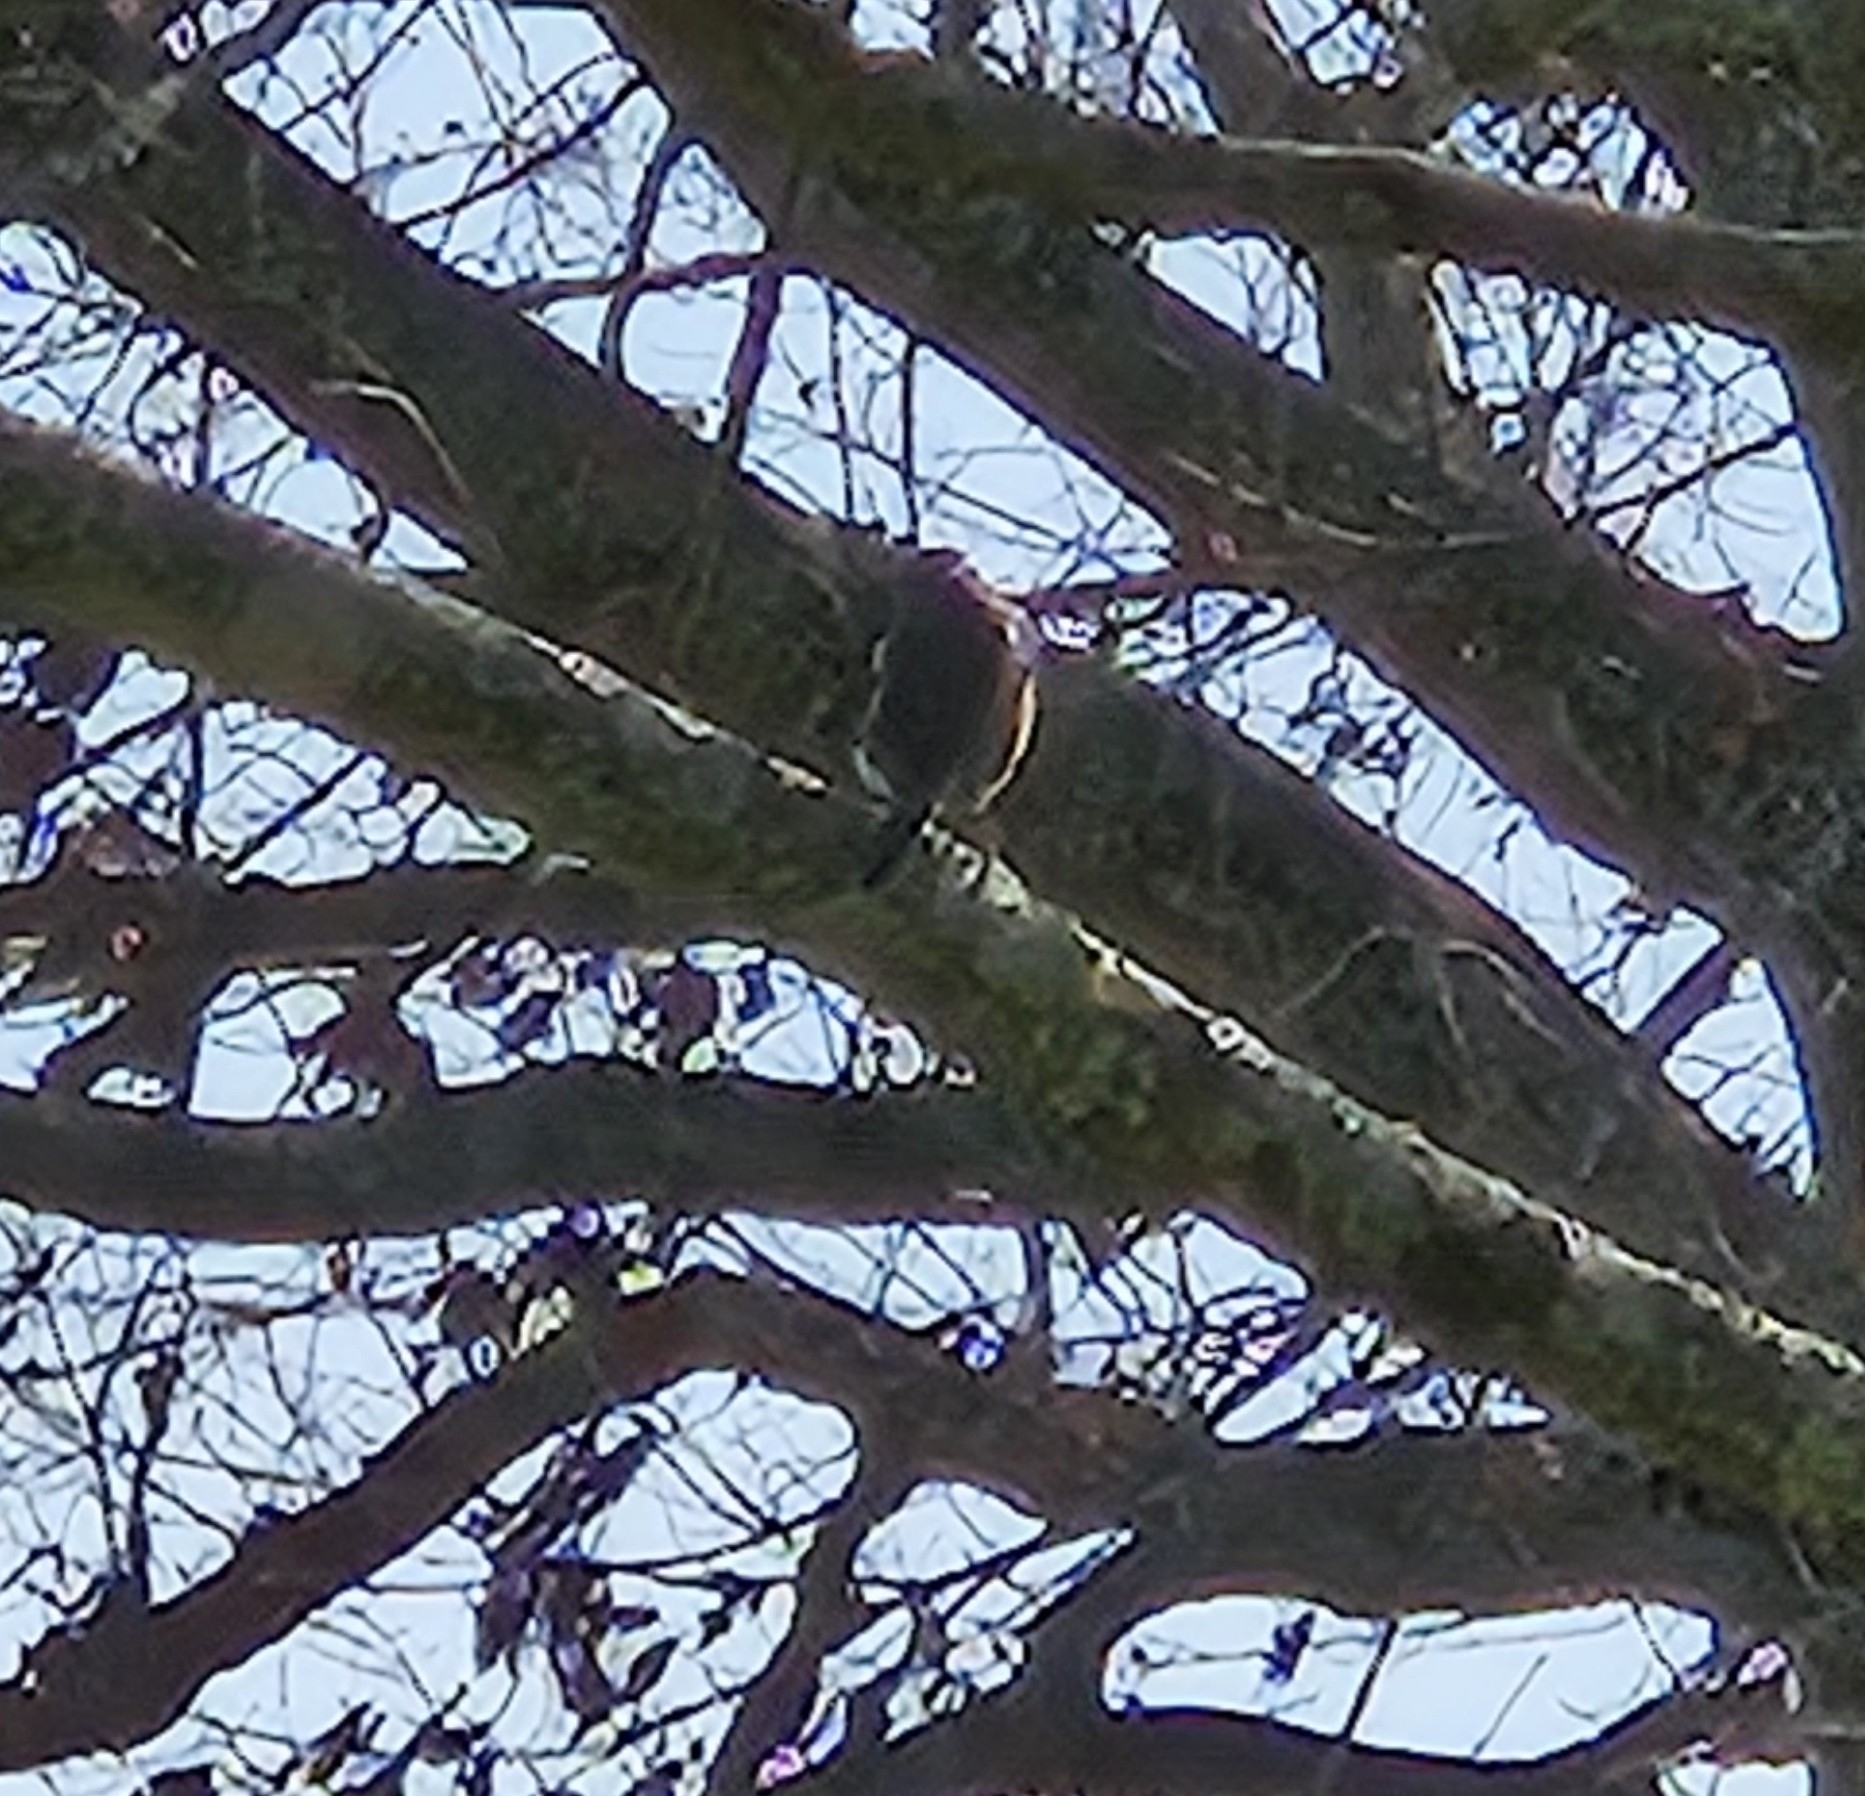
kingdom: Animalia
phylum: Chordata
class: Aves
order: Passeriformes
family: Turdidae
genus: Sialia
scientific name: Sialia sialis
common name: Eastern bluebird
